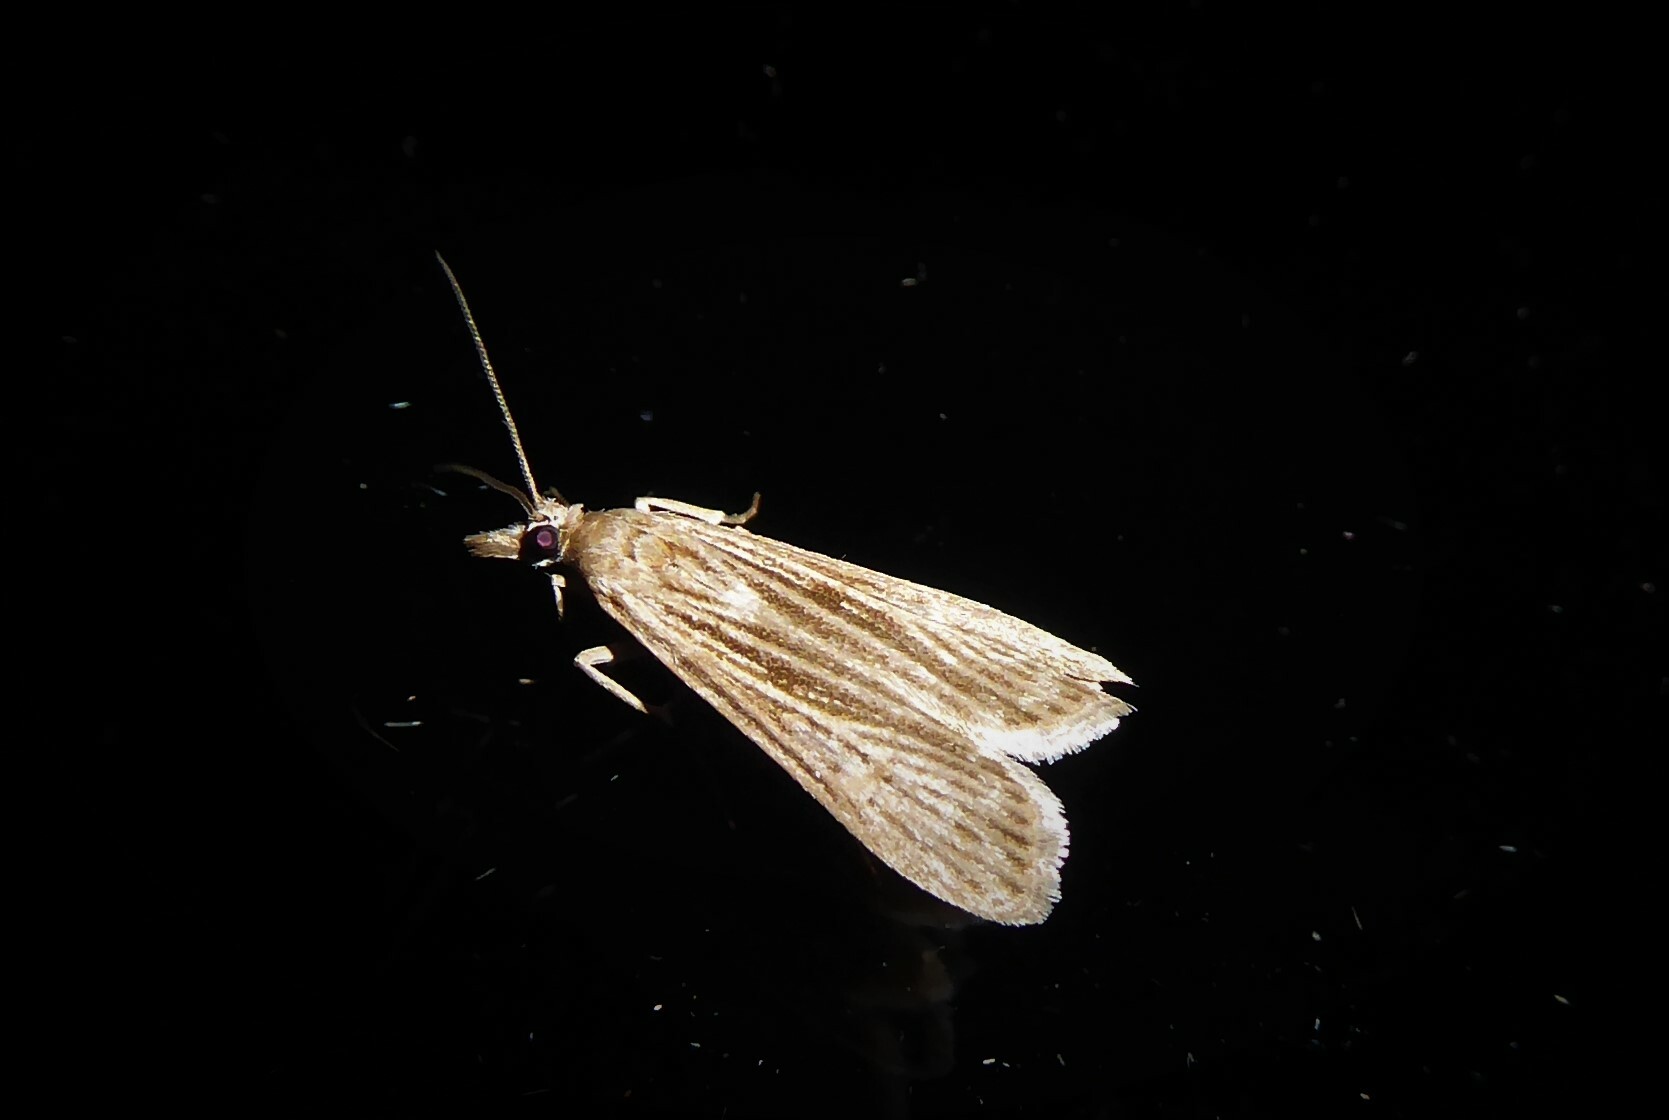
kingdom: Animalia
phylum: Arthropoda
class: Insecta
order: Lepidoptera
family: Crambidae
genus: Eudonia
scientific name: Eudonia atmogramma
